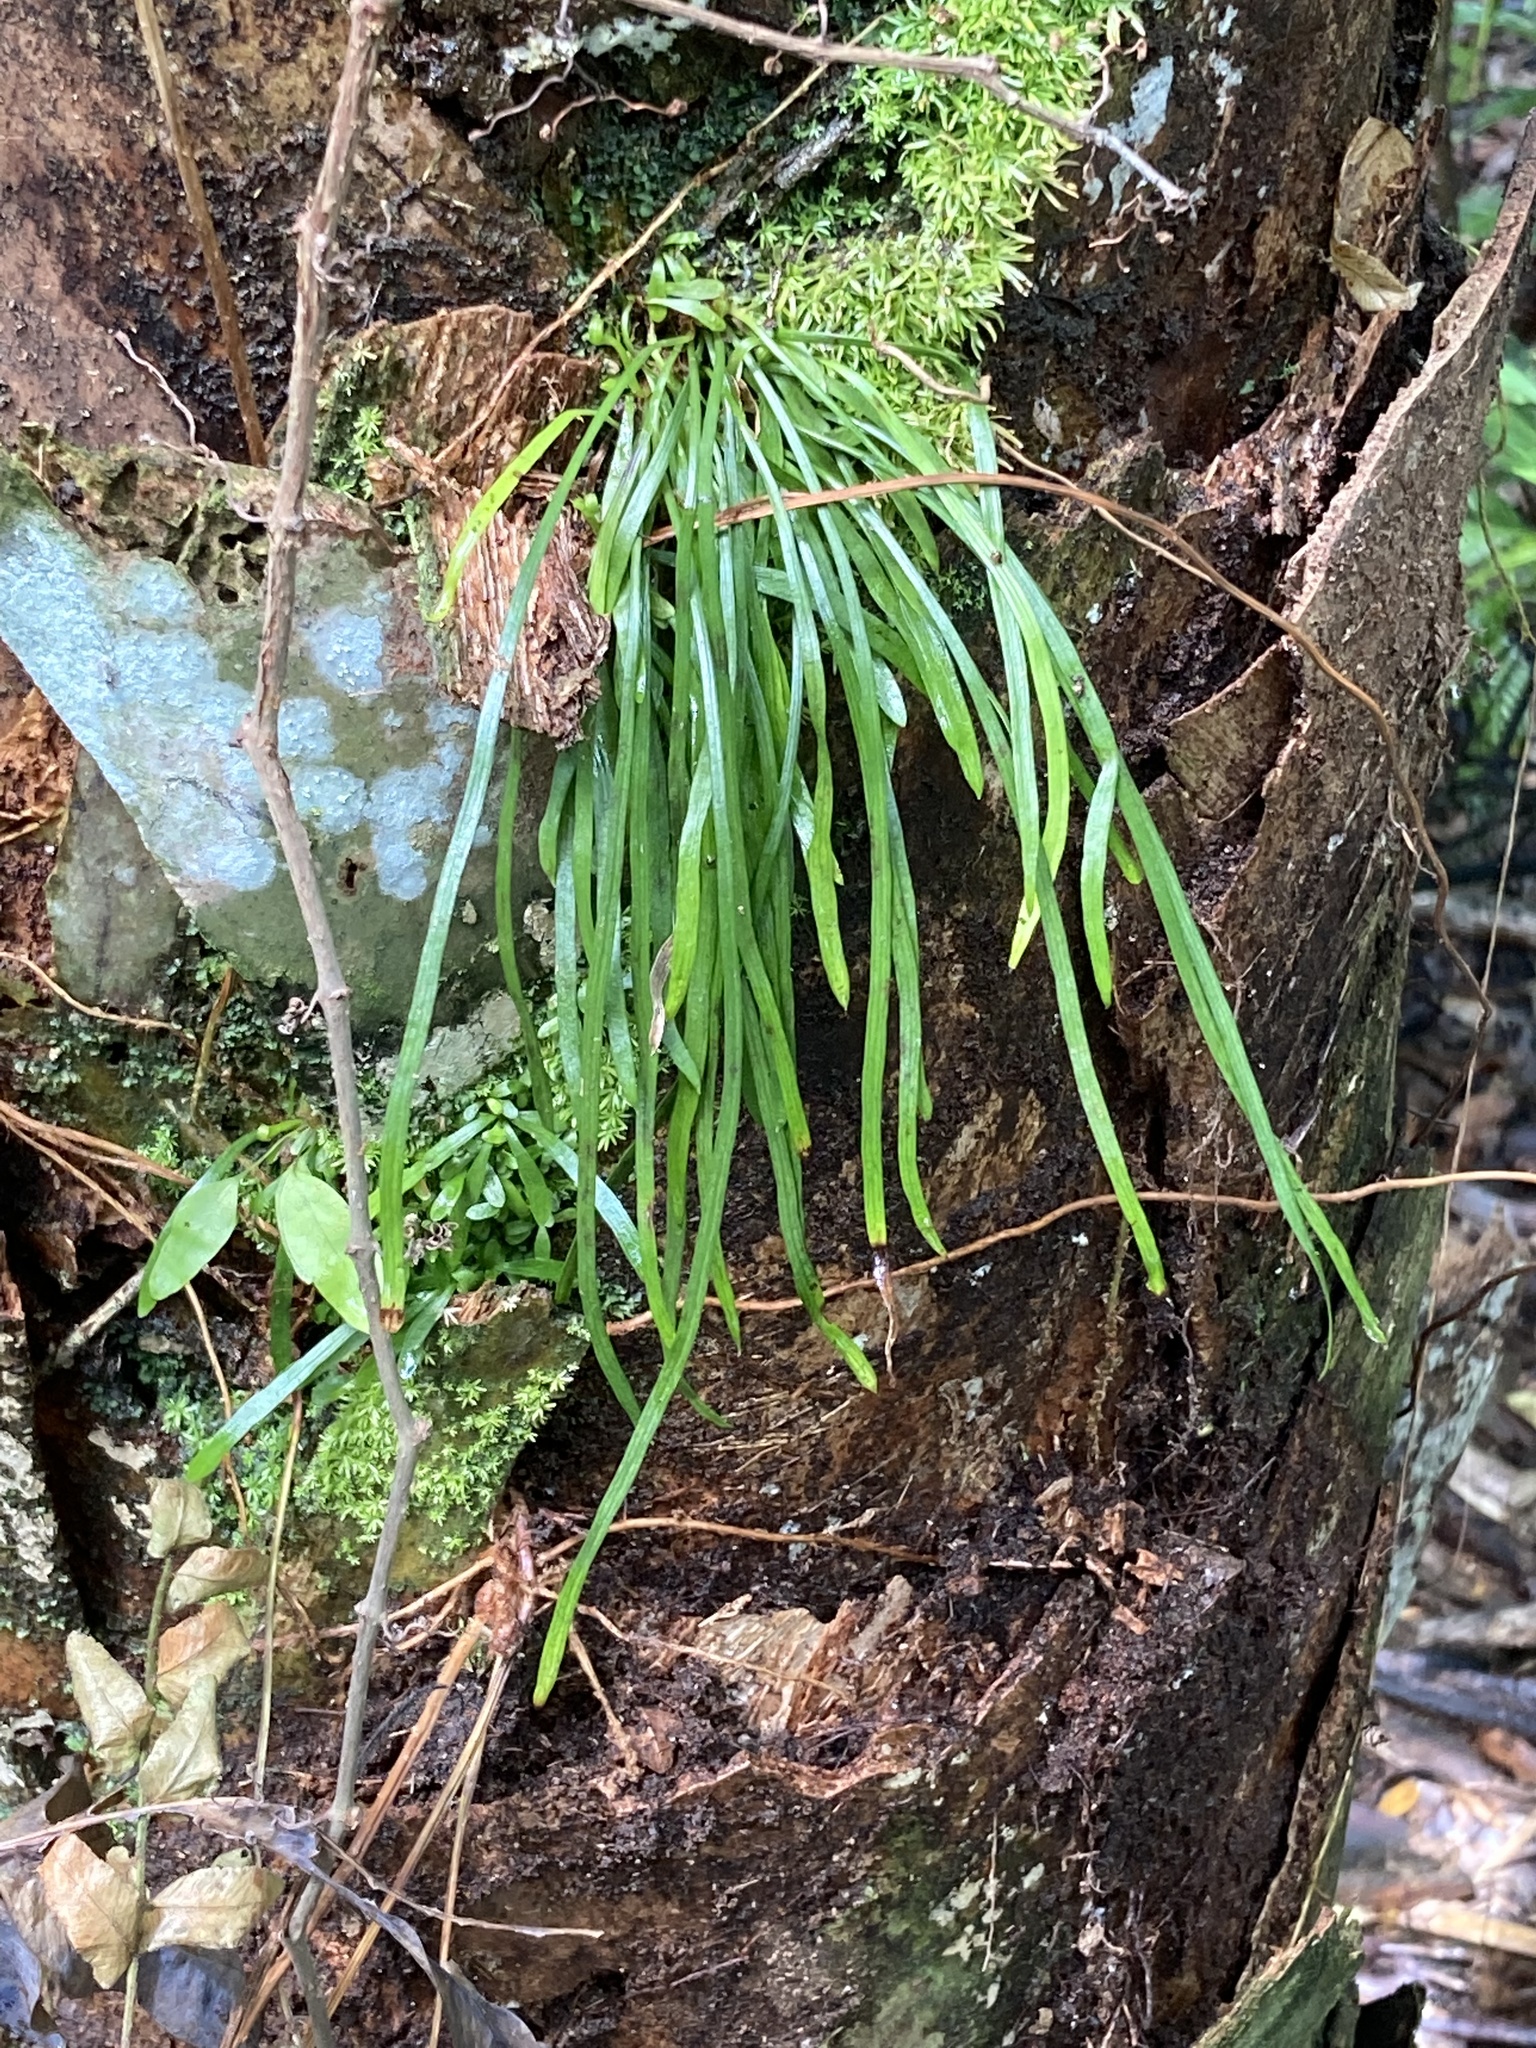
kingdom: Plantae
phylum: Tracheophyta
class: Polypodiopsida
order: Polypodiales
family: Pteridaceae
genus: Vittaria
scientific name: Vittaria lineata
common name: Shoestring fern
